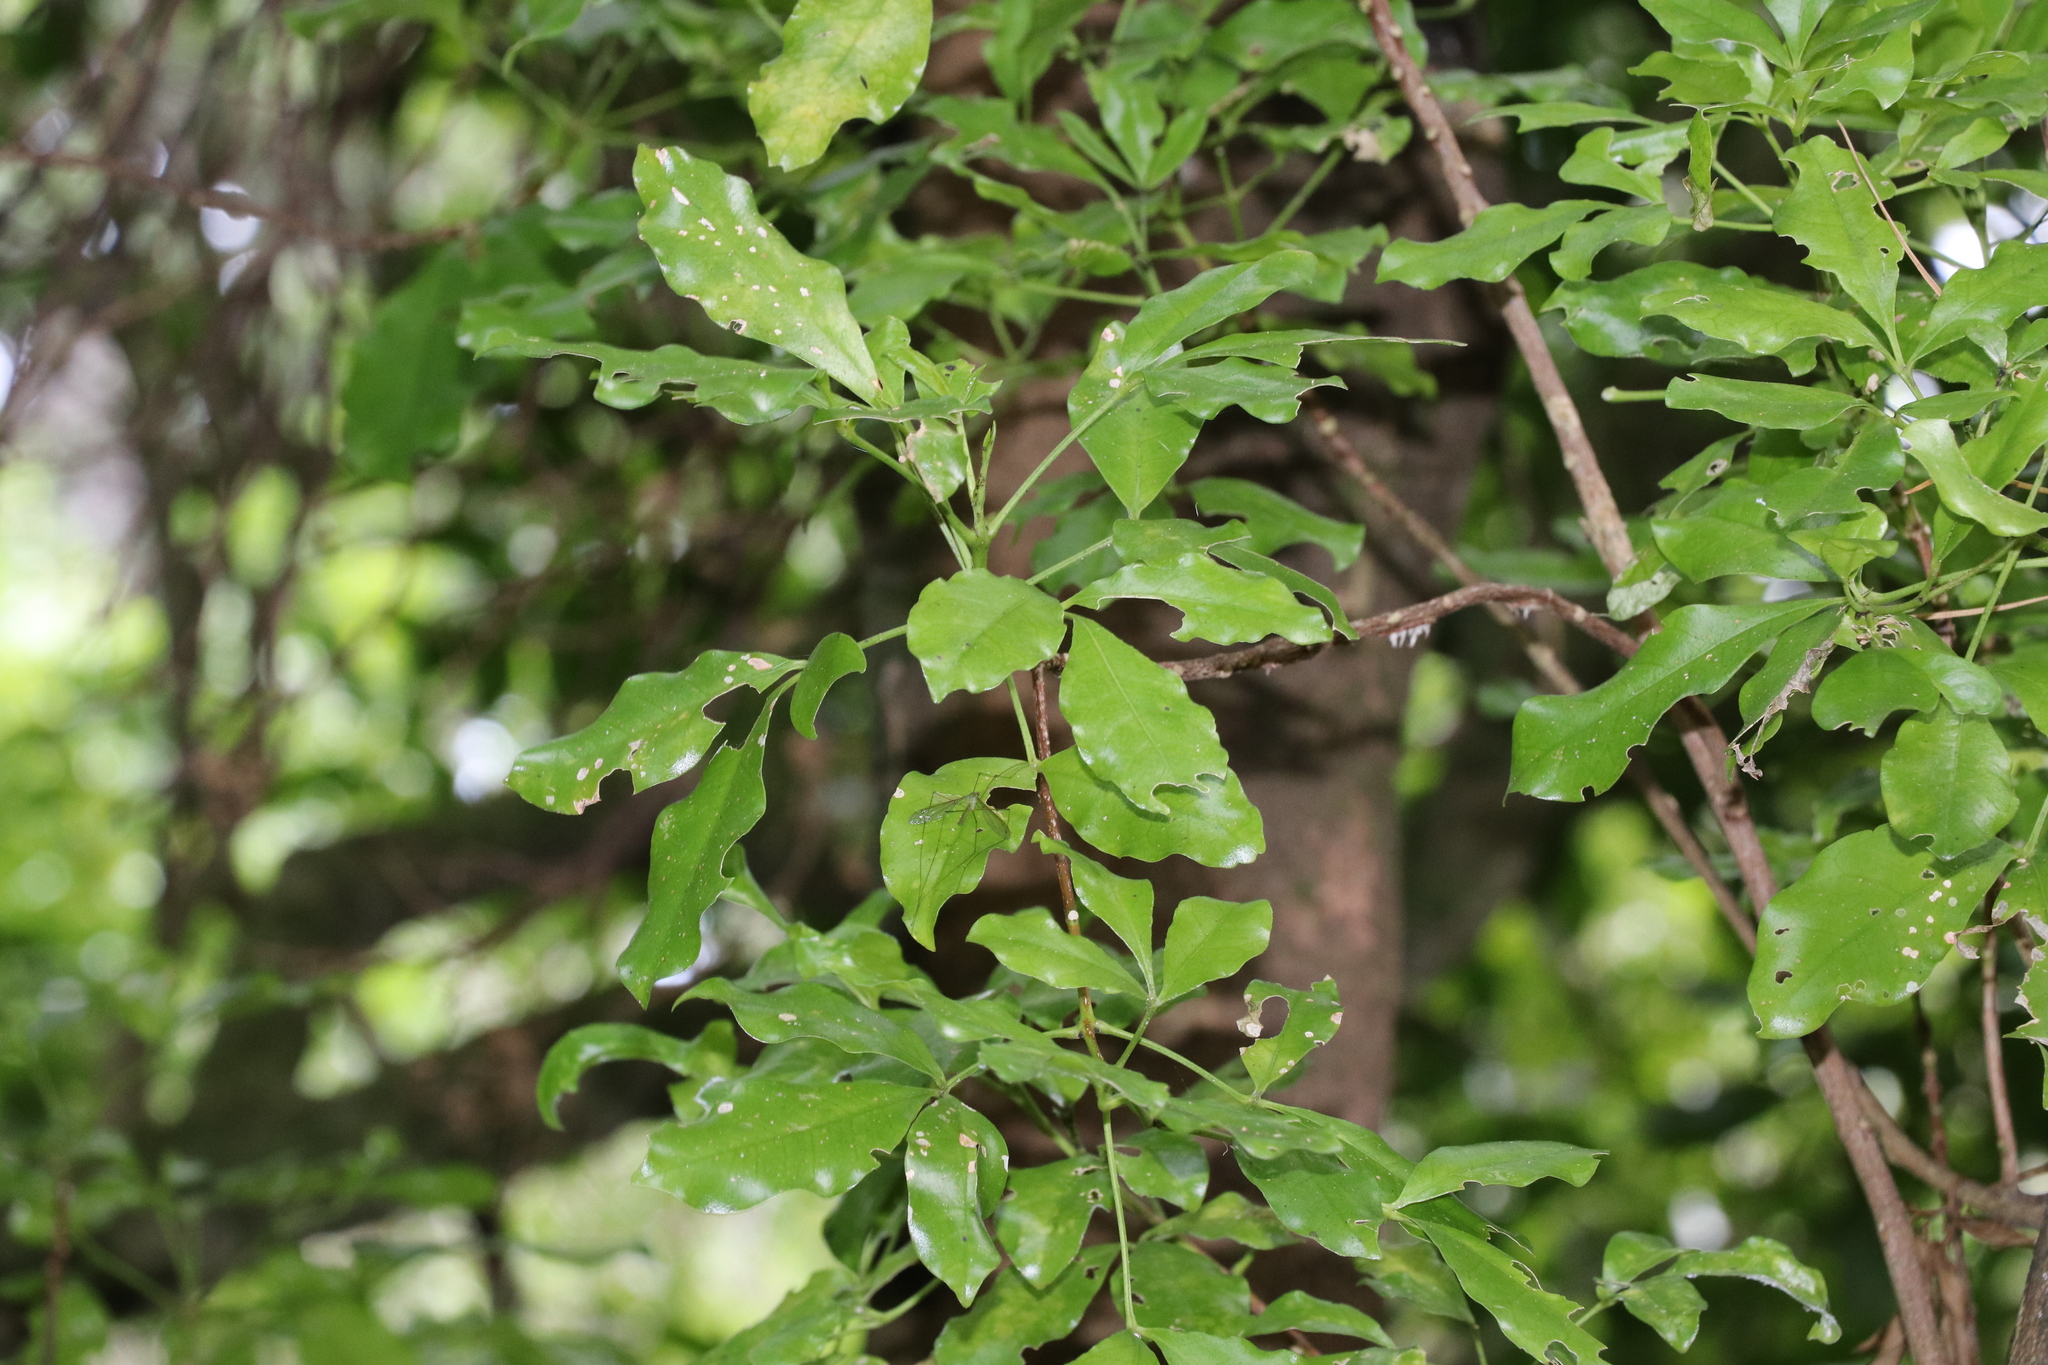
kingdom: Plantae
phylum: Tracheophyta
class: Magnoliopsida
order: Sapindales
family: Rutaceae
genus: Melicope
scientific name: Melicope ternata
